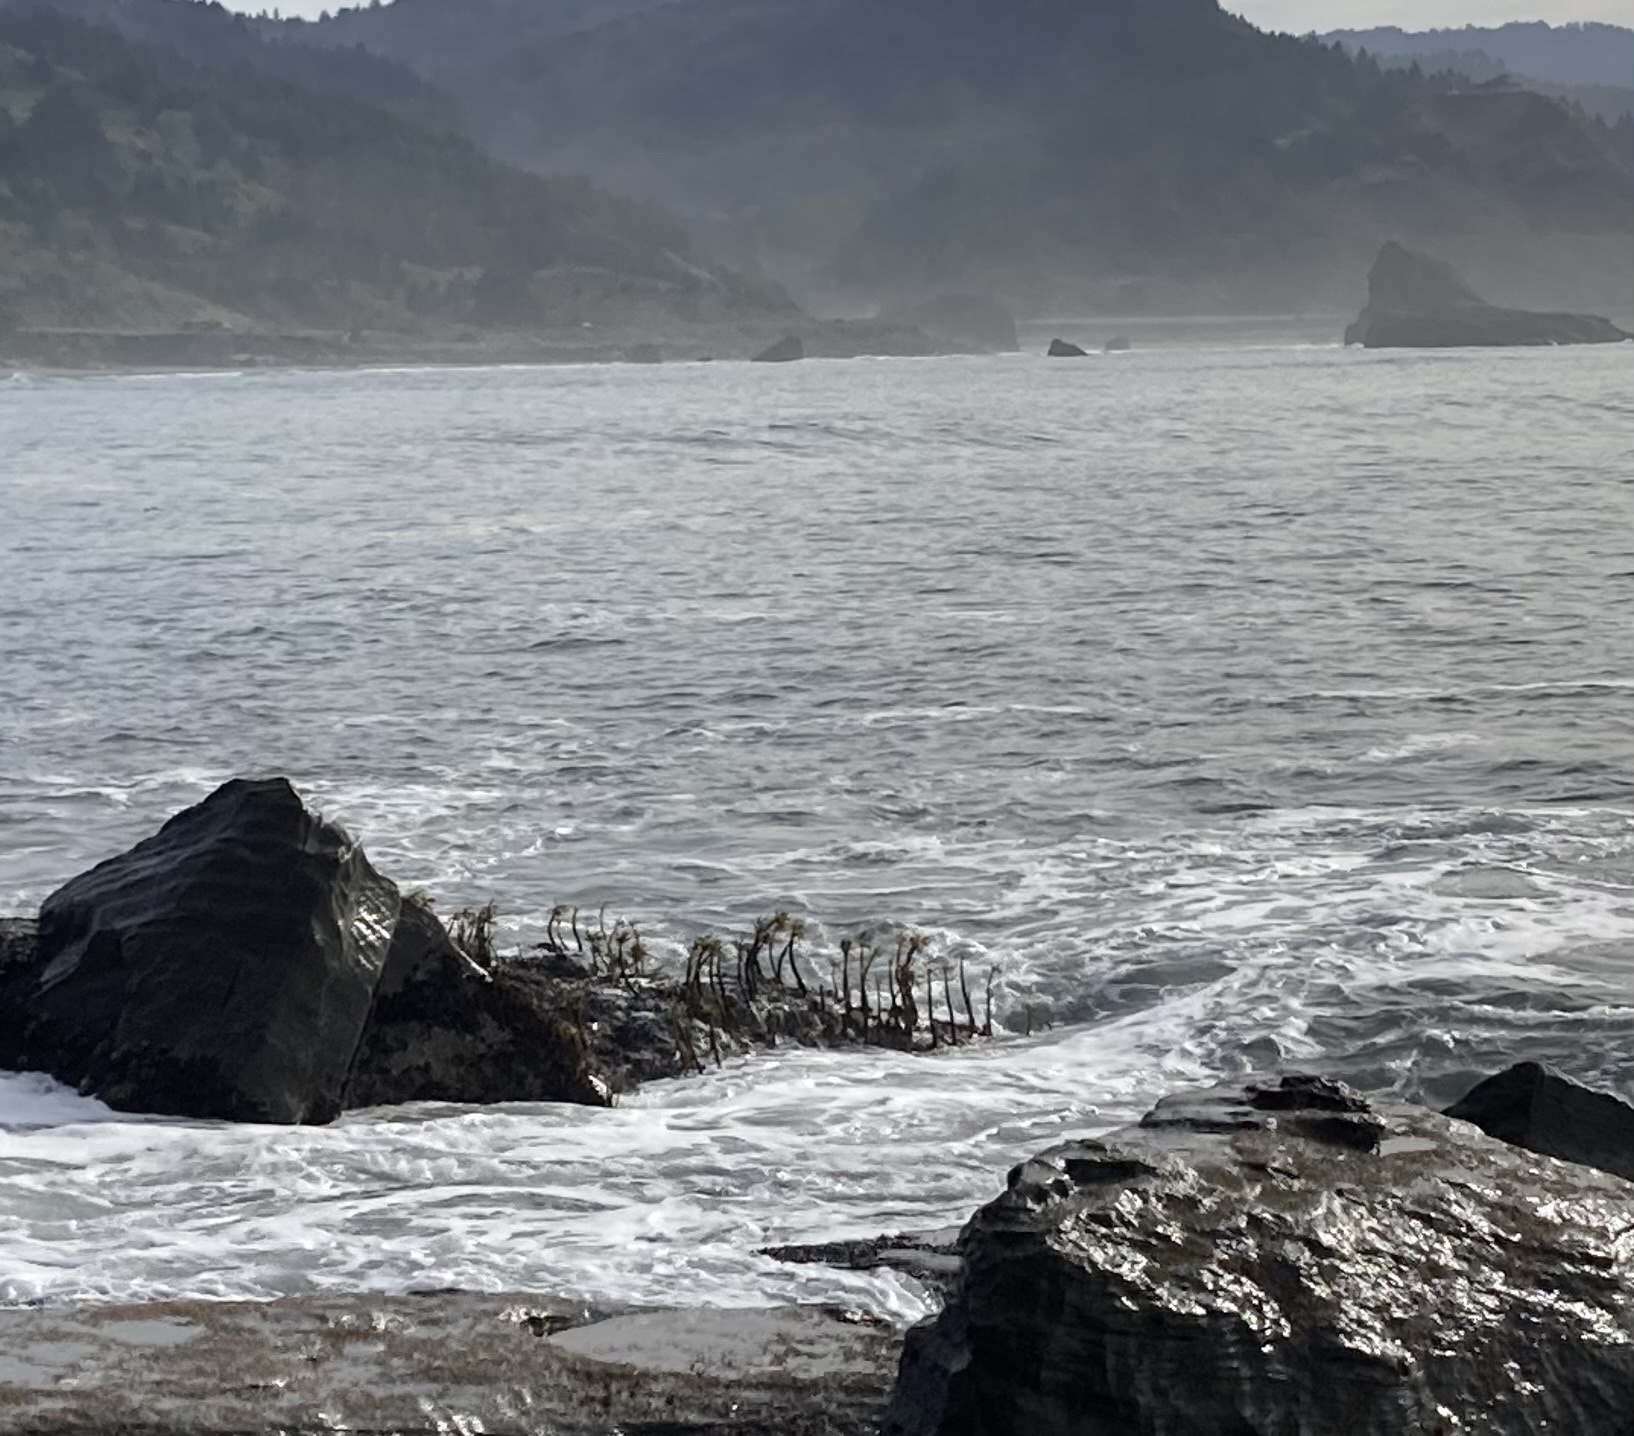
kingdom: Chromista
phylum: Ochrophyta
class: Phaeophyceae
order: Laminariales
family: Laminariaceae
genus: Postelsia
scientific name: Postelsia palmiformis
